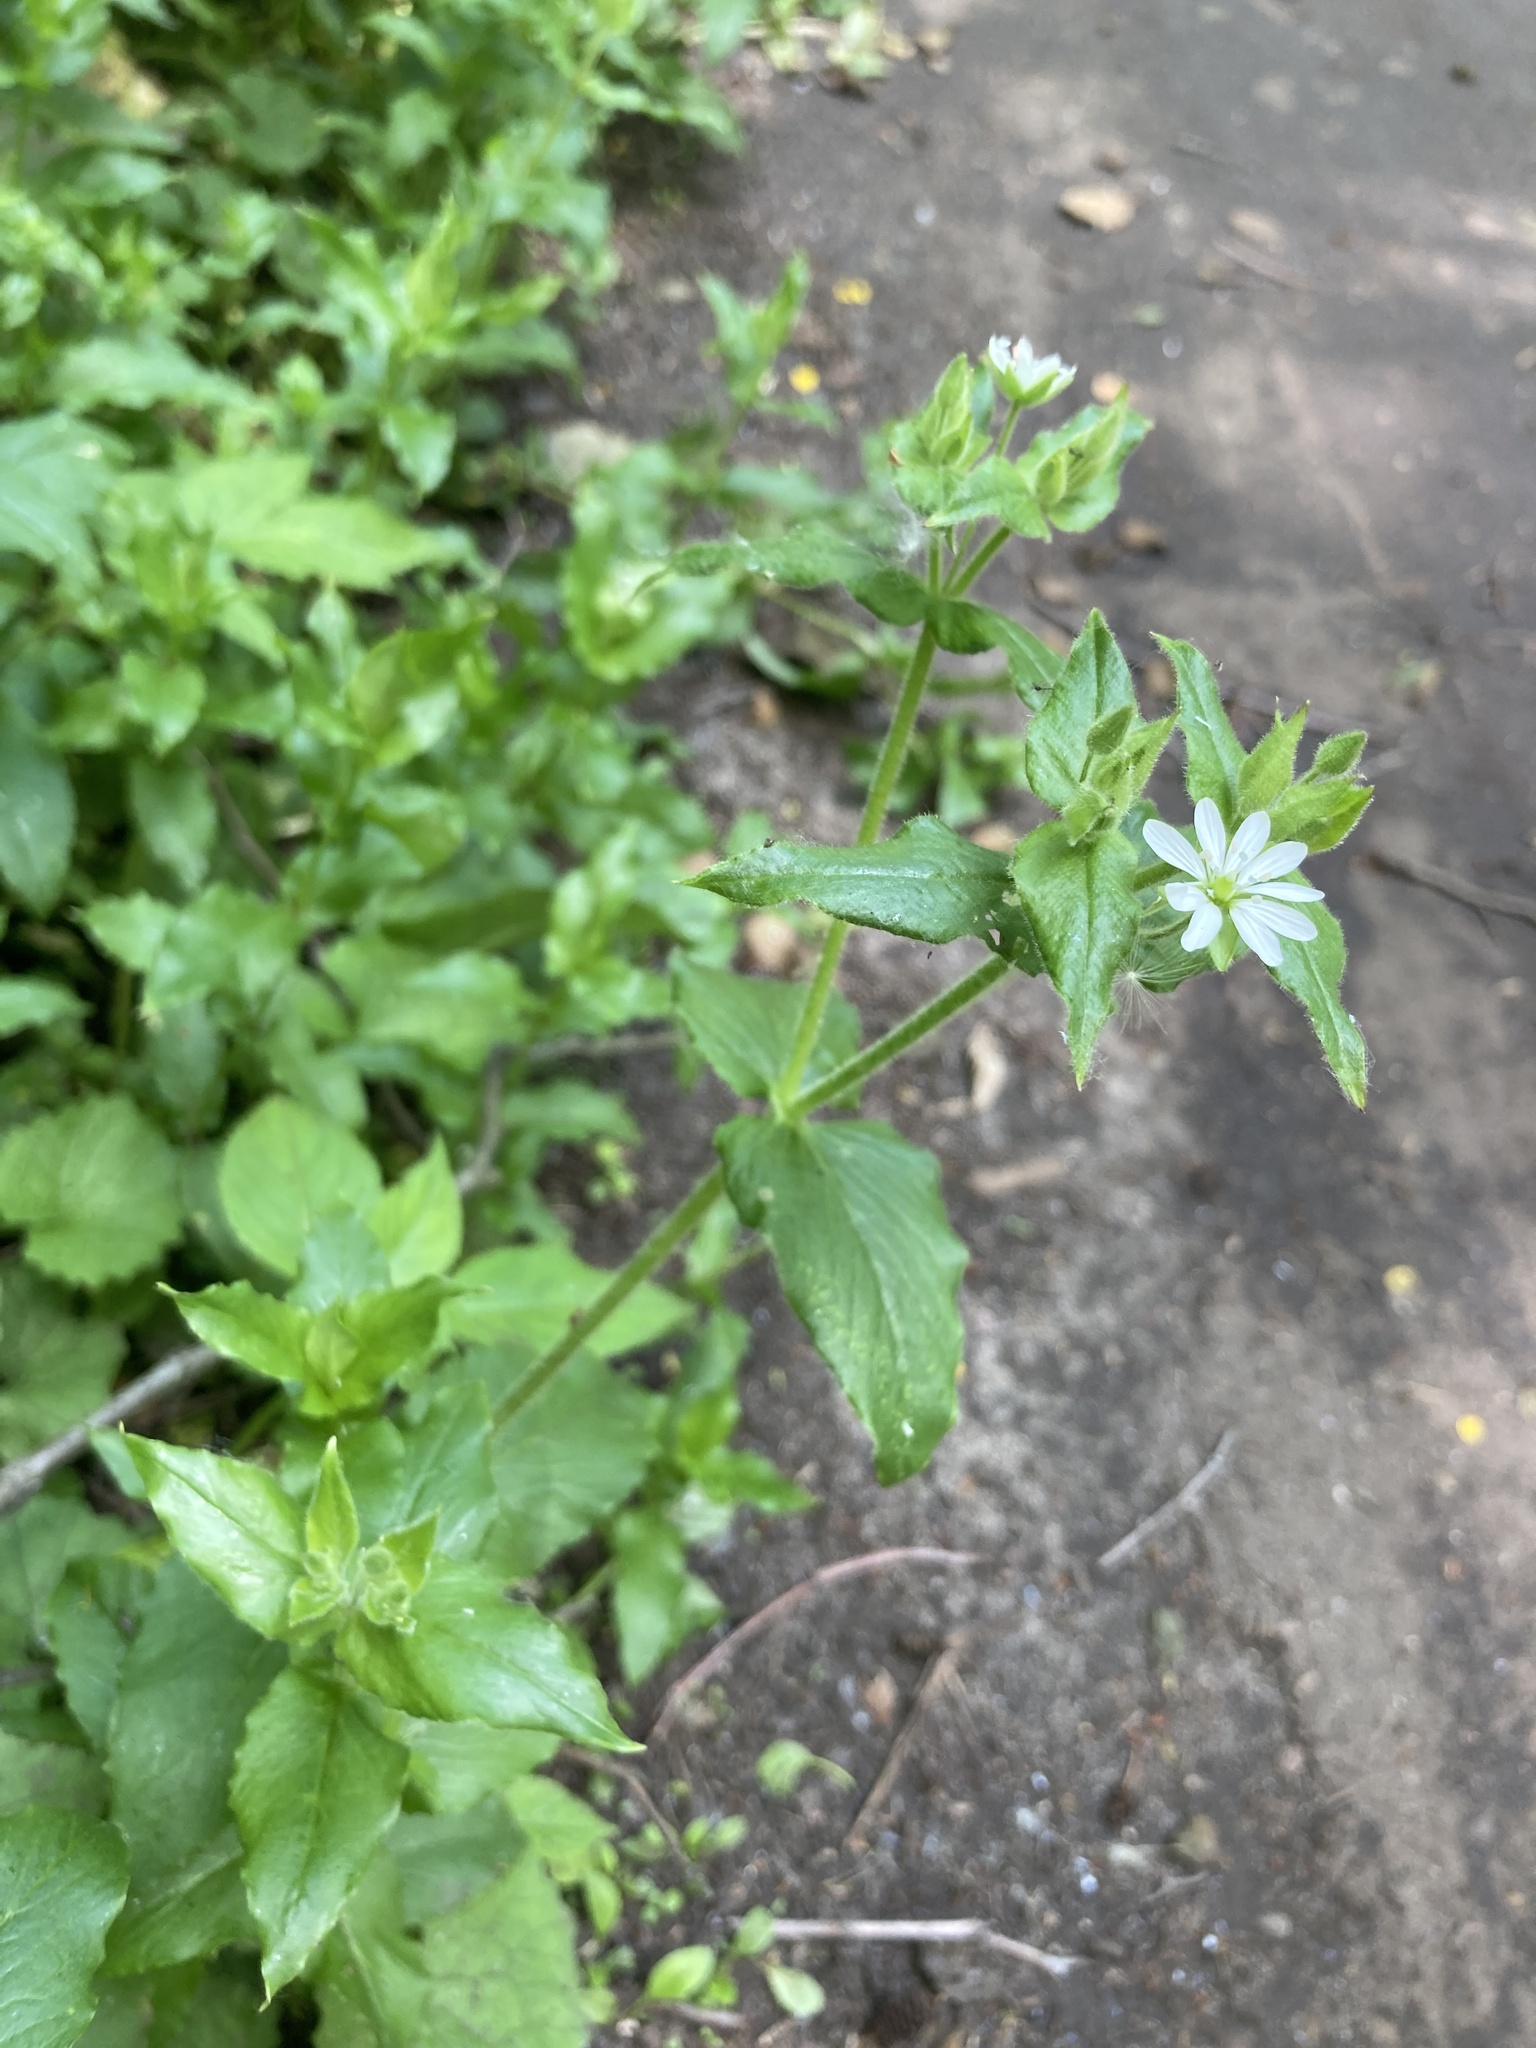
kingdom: Plantae
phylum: Tracheophyta
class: Magnoliopsida
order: Caryophyllales
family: Caryophyllaceae
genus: Stellaria
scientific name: Stellaria aquatica
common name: Water chickweed
